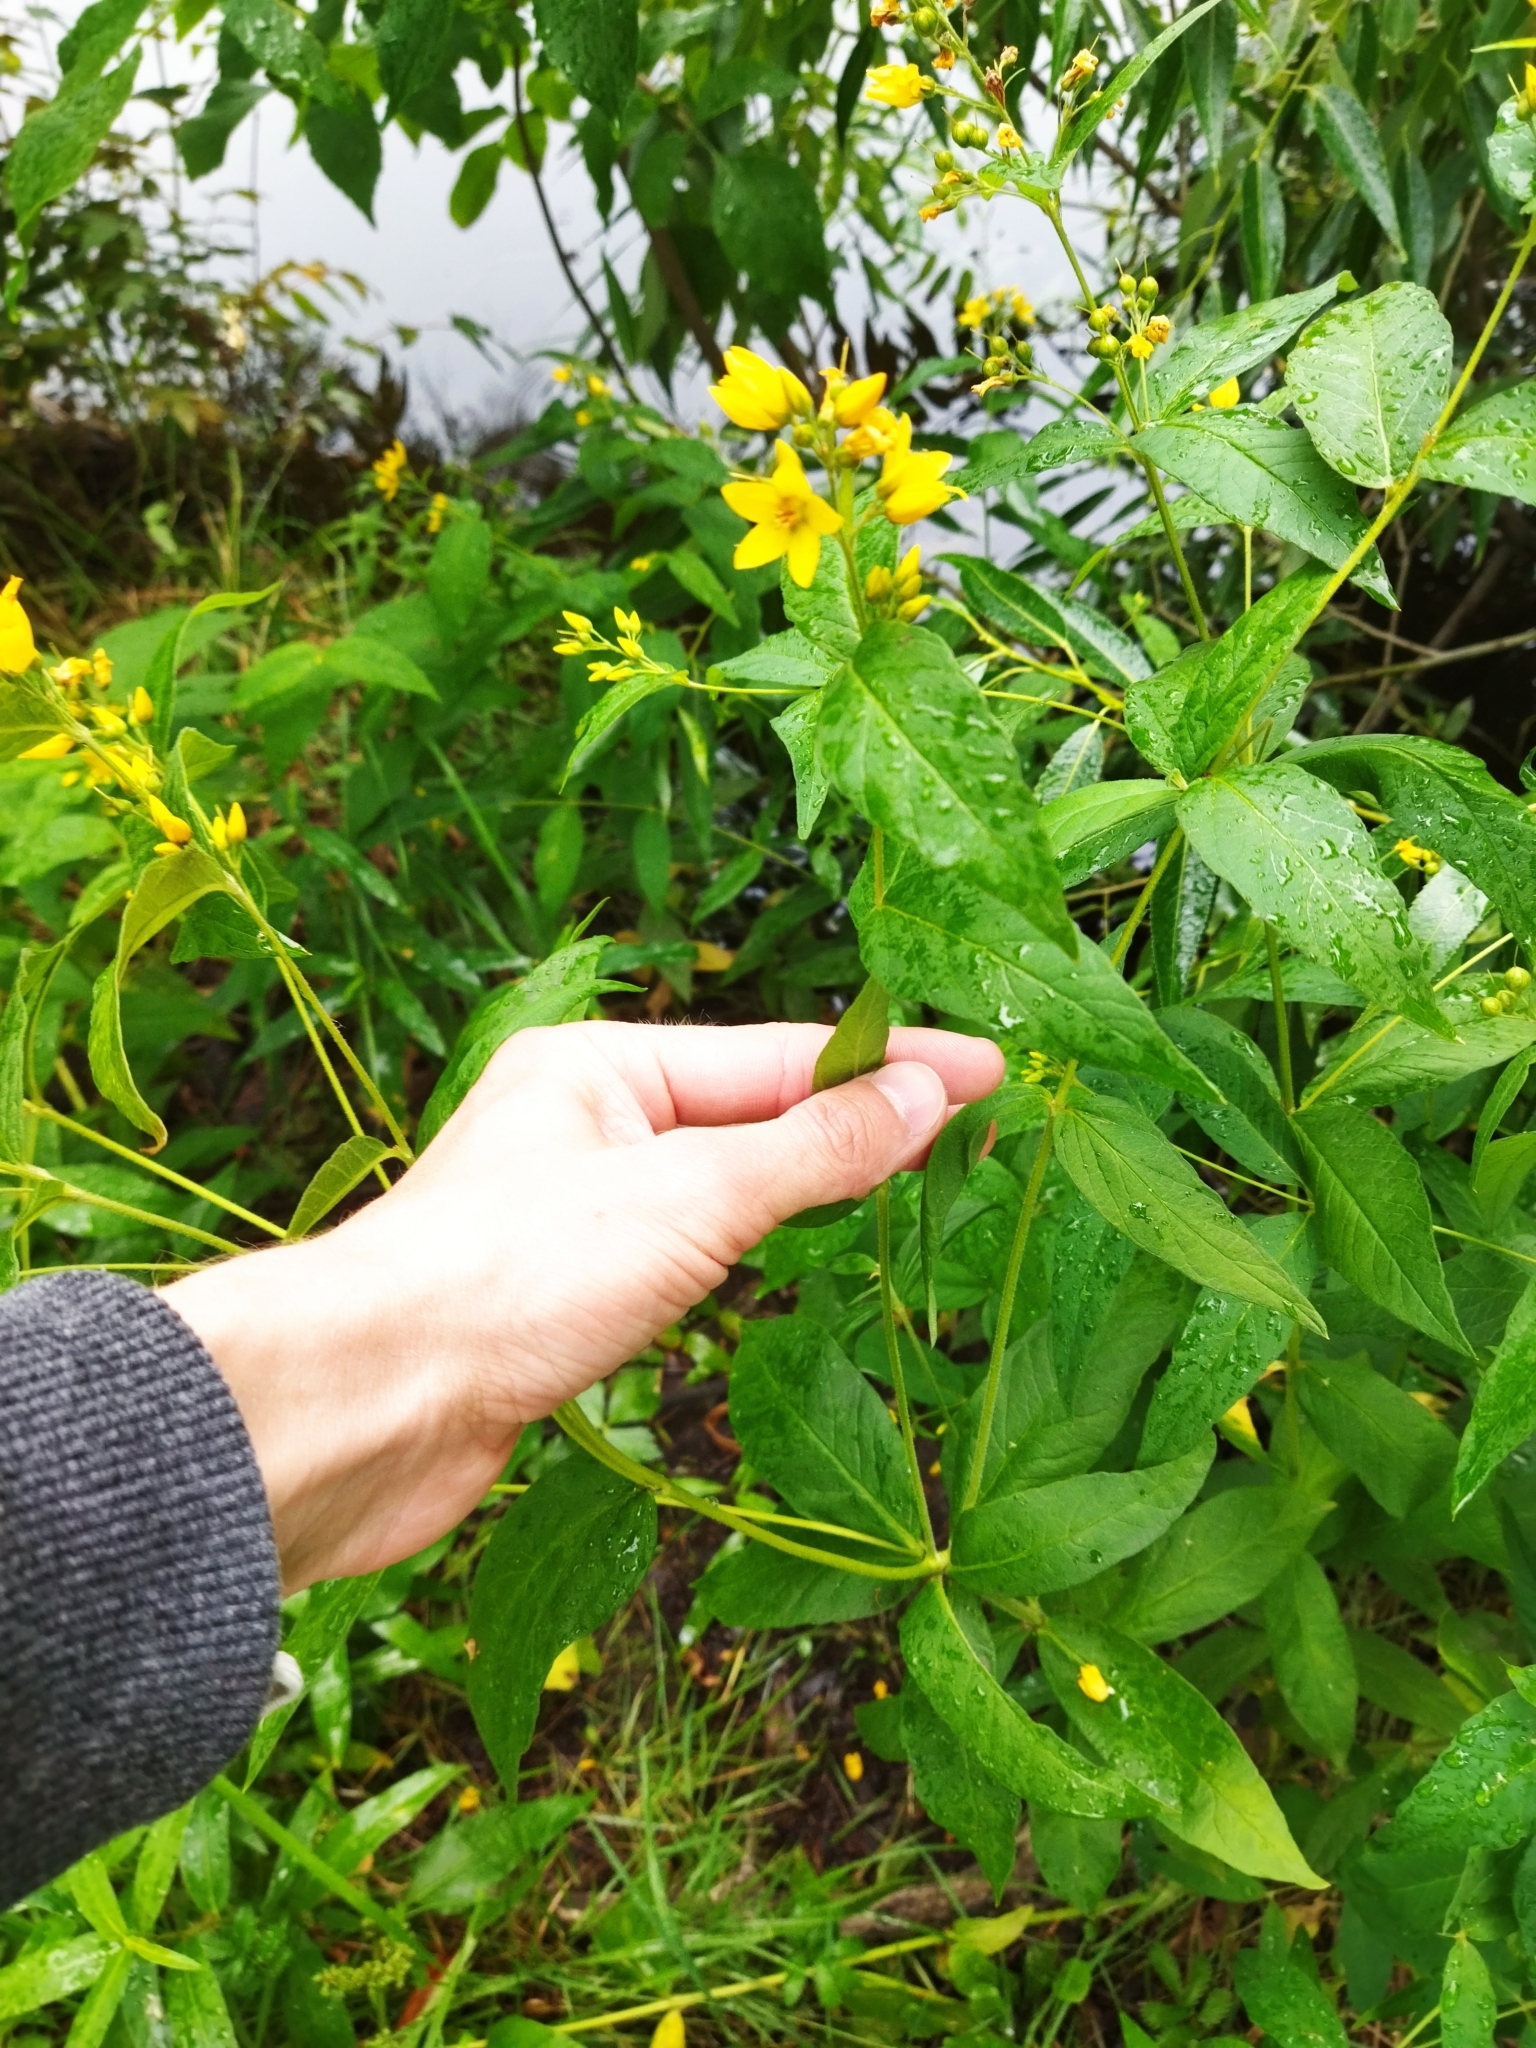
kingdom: Plantae
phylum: Tracheophyta
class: Magnoliopsida
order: Ericales
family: Primulaceae
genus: Lysimachia
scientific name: Lysimachia vulgaris
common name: Yellow loosestrife
